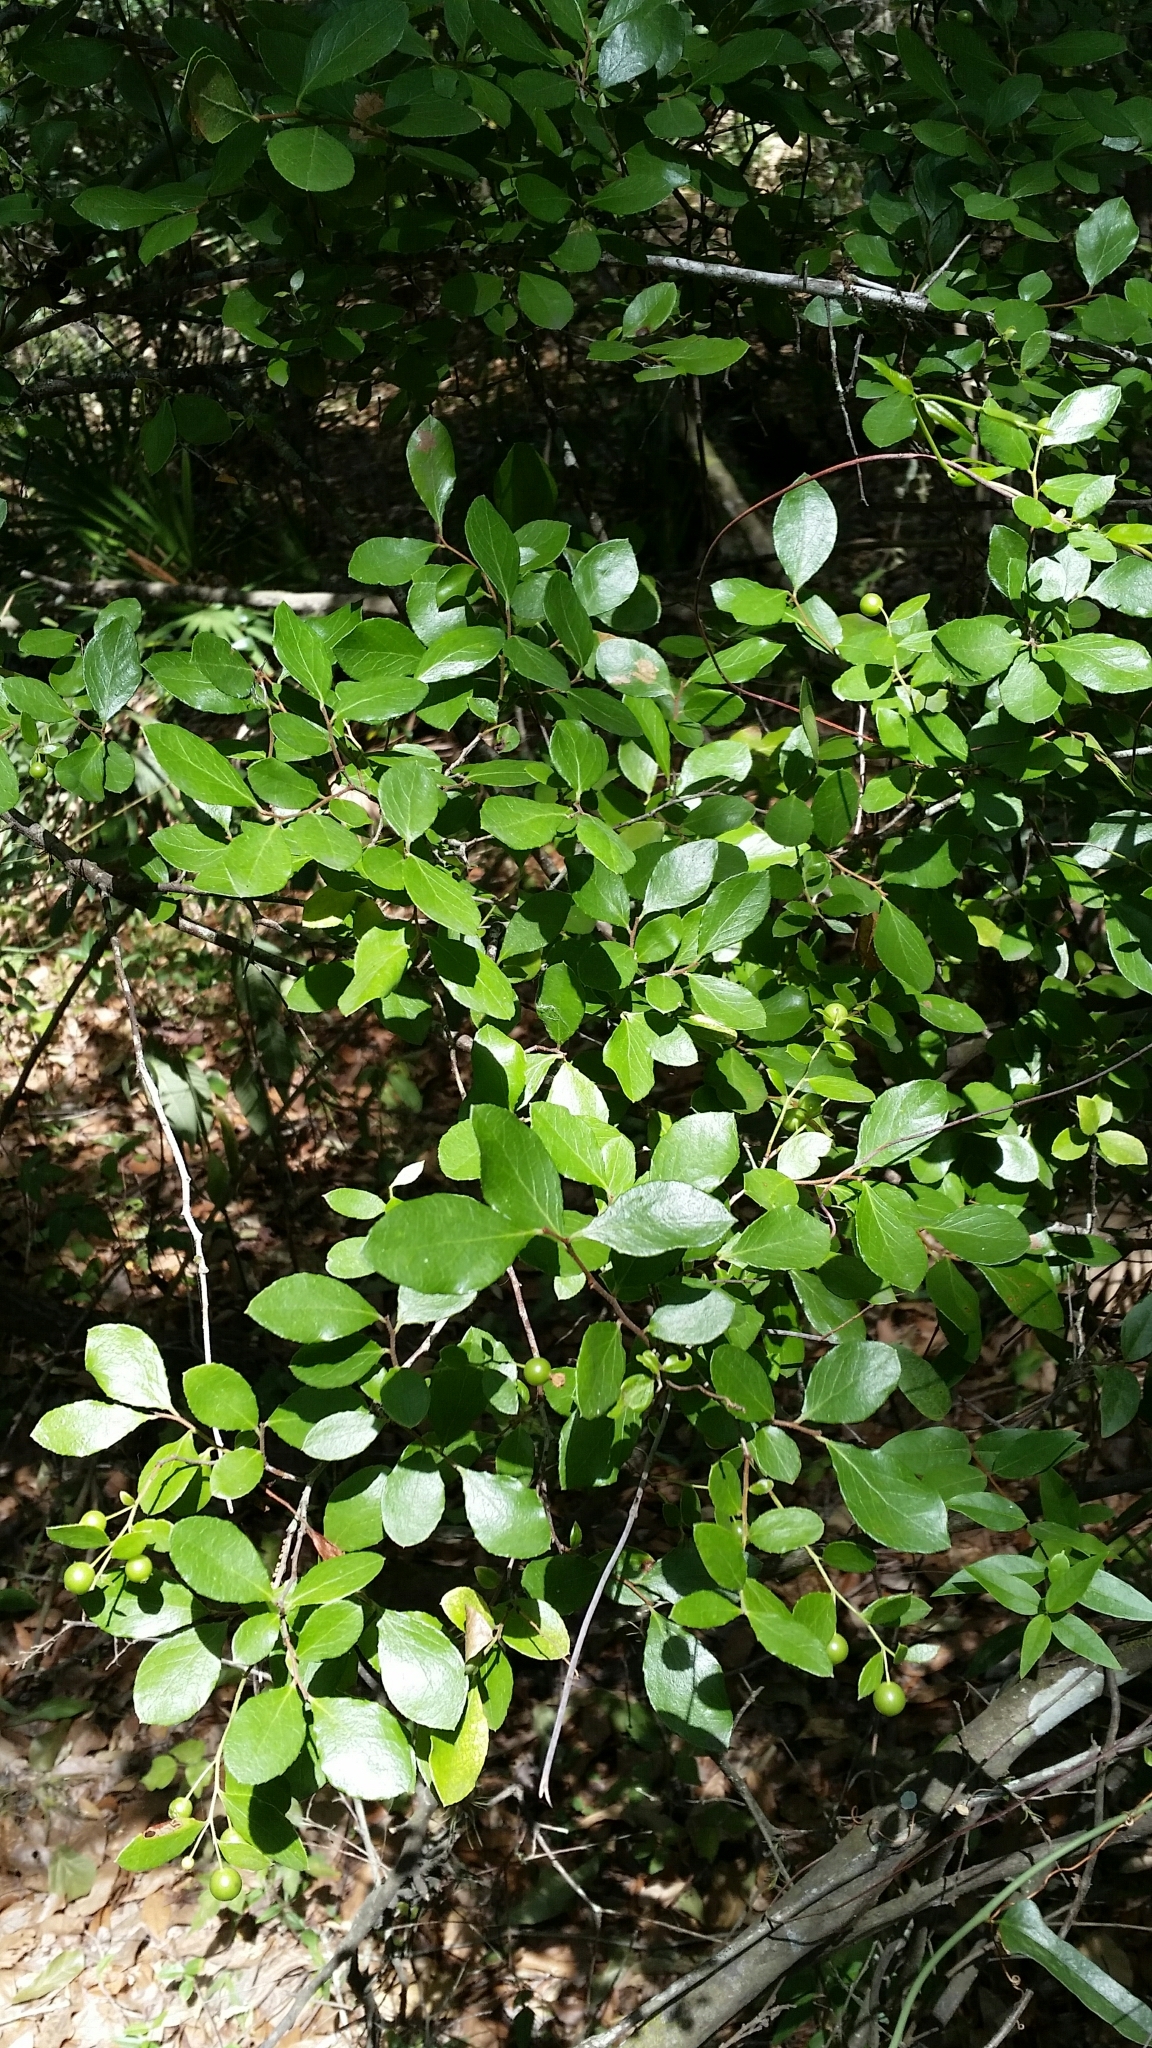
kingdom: Plantae
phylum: Tracheophyta
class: Magnoliopsida
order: Ericales
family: Ericaceae
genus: Vaccinium
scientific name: Vaccinium arboreum
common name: Farkleberry
